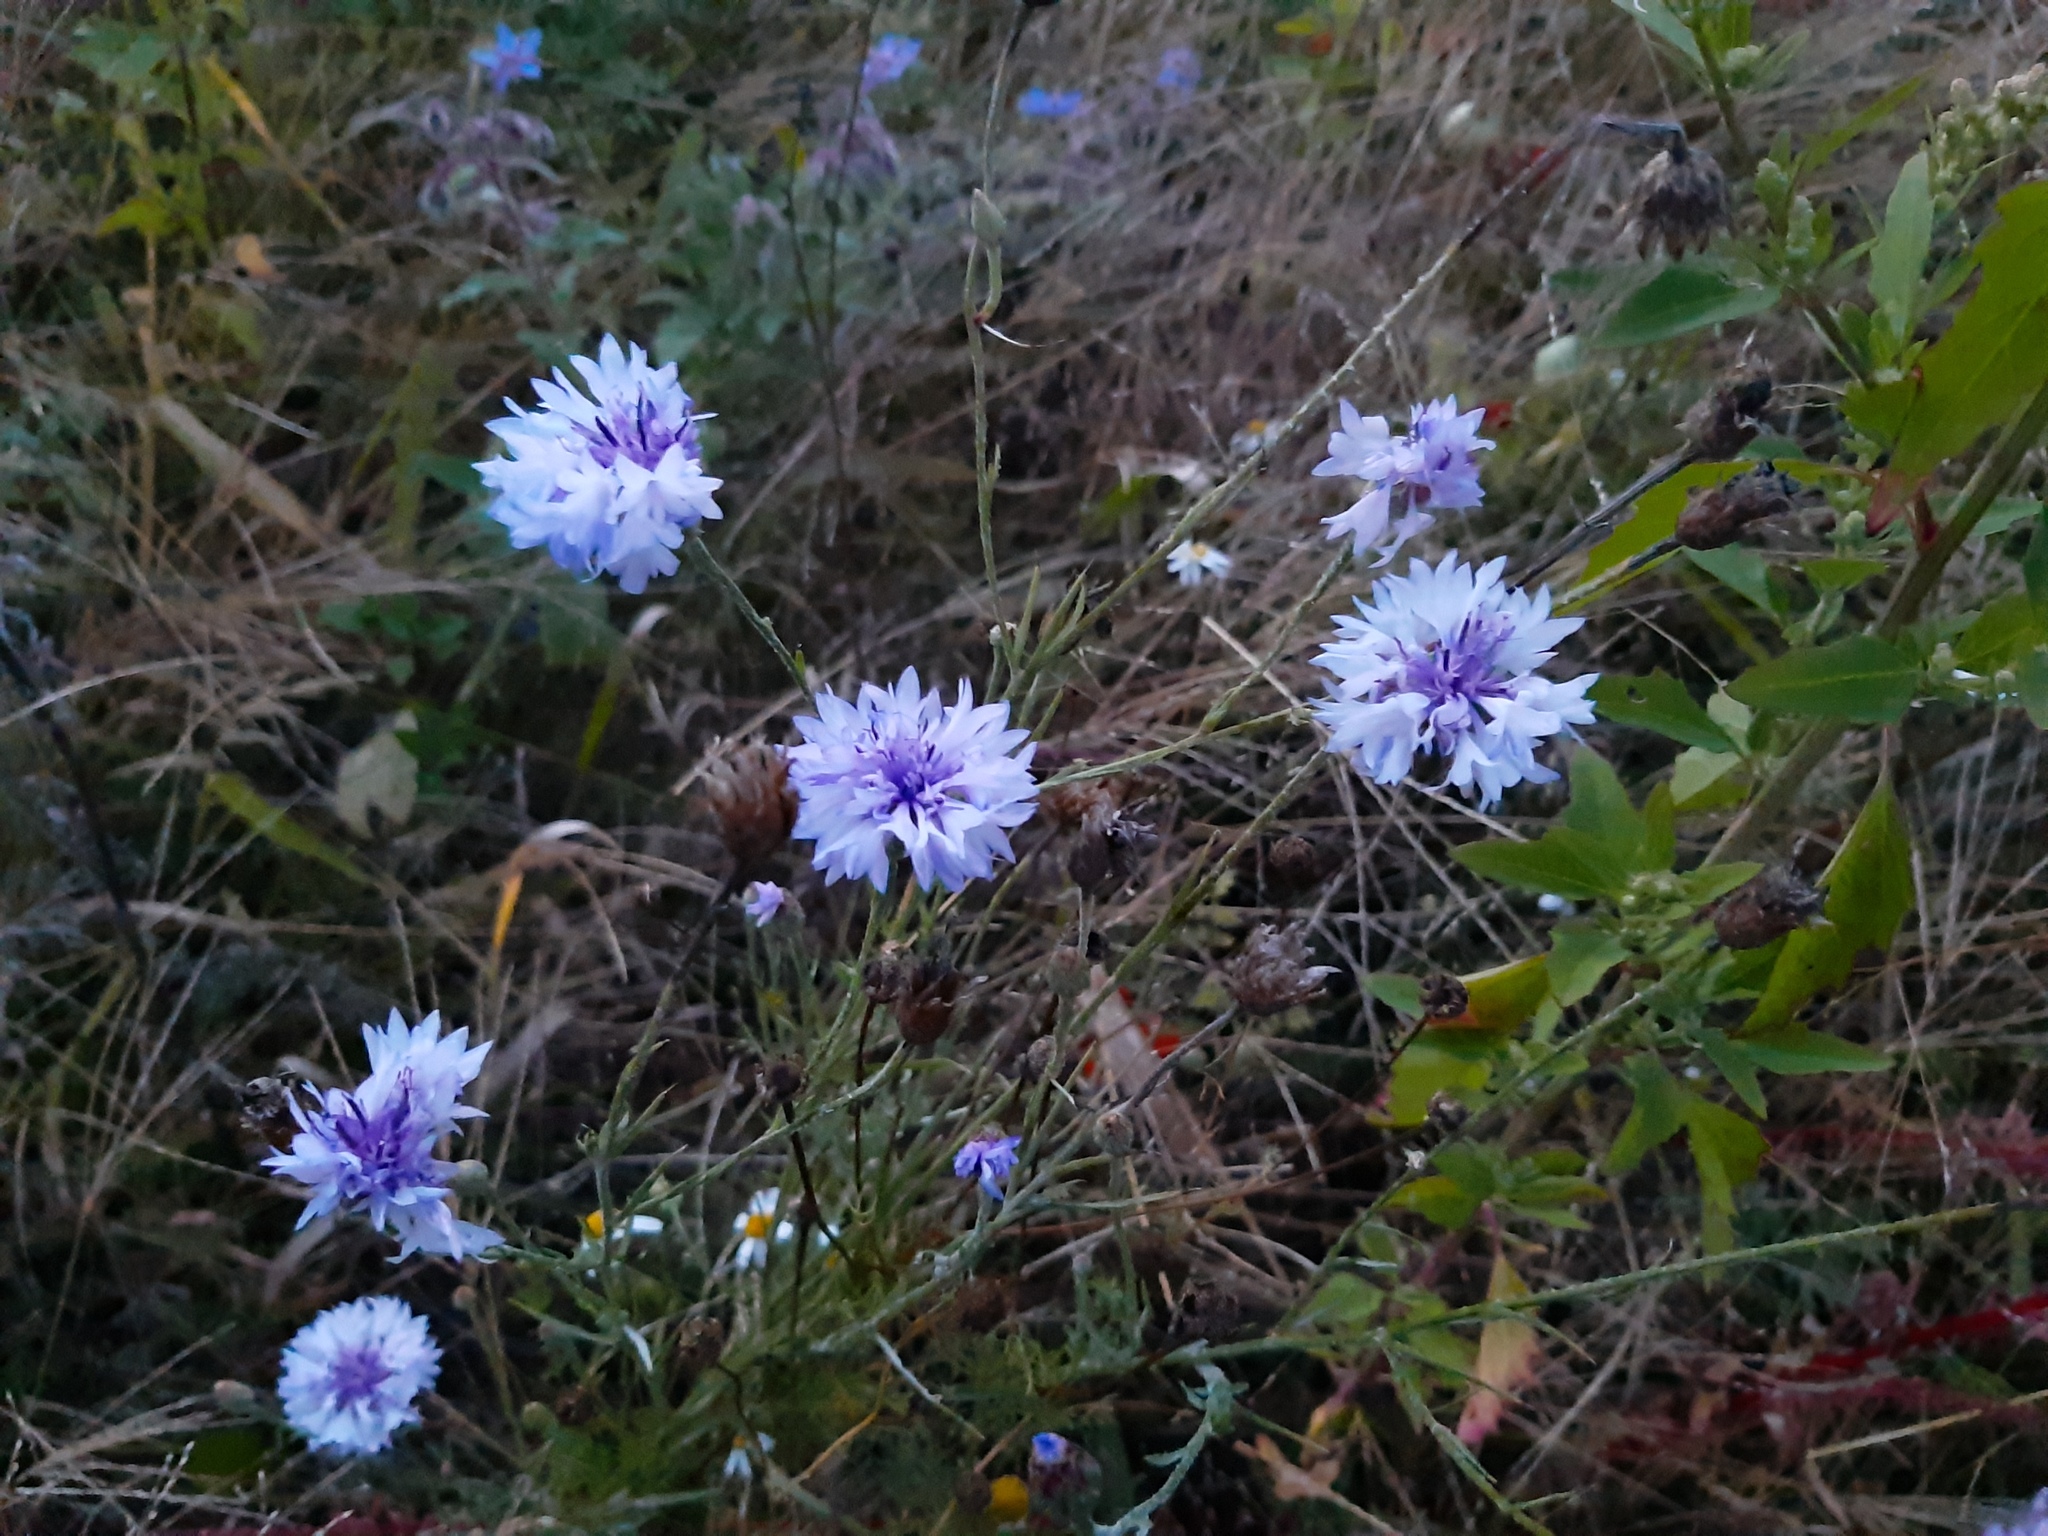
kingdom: Plantae
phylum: Tracheophyta
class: Magnoliopsida
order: Asterales
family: Asteraceae
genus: Centaurea
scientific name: Centaurea cyanus
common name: Cornflower
